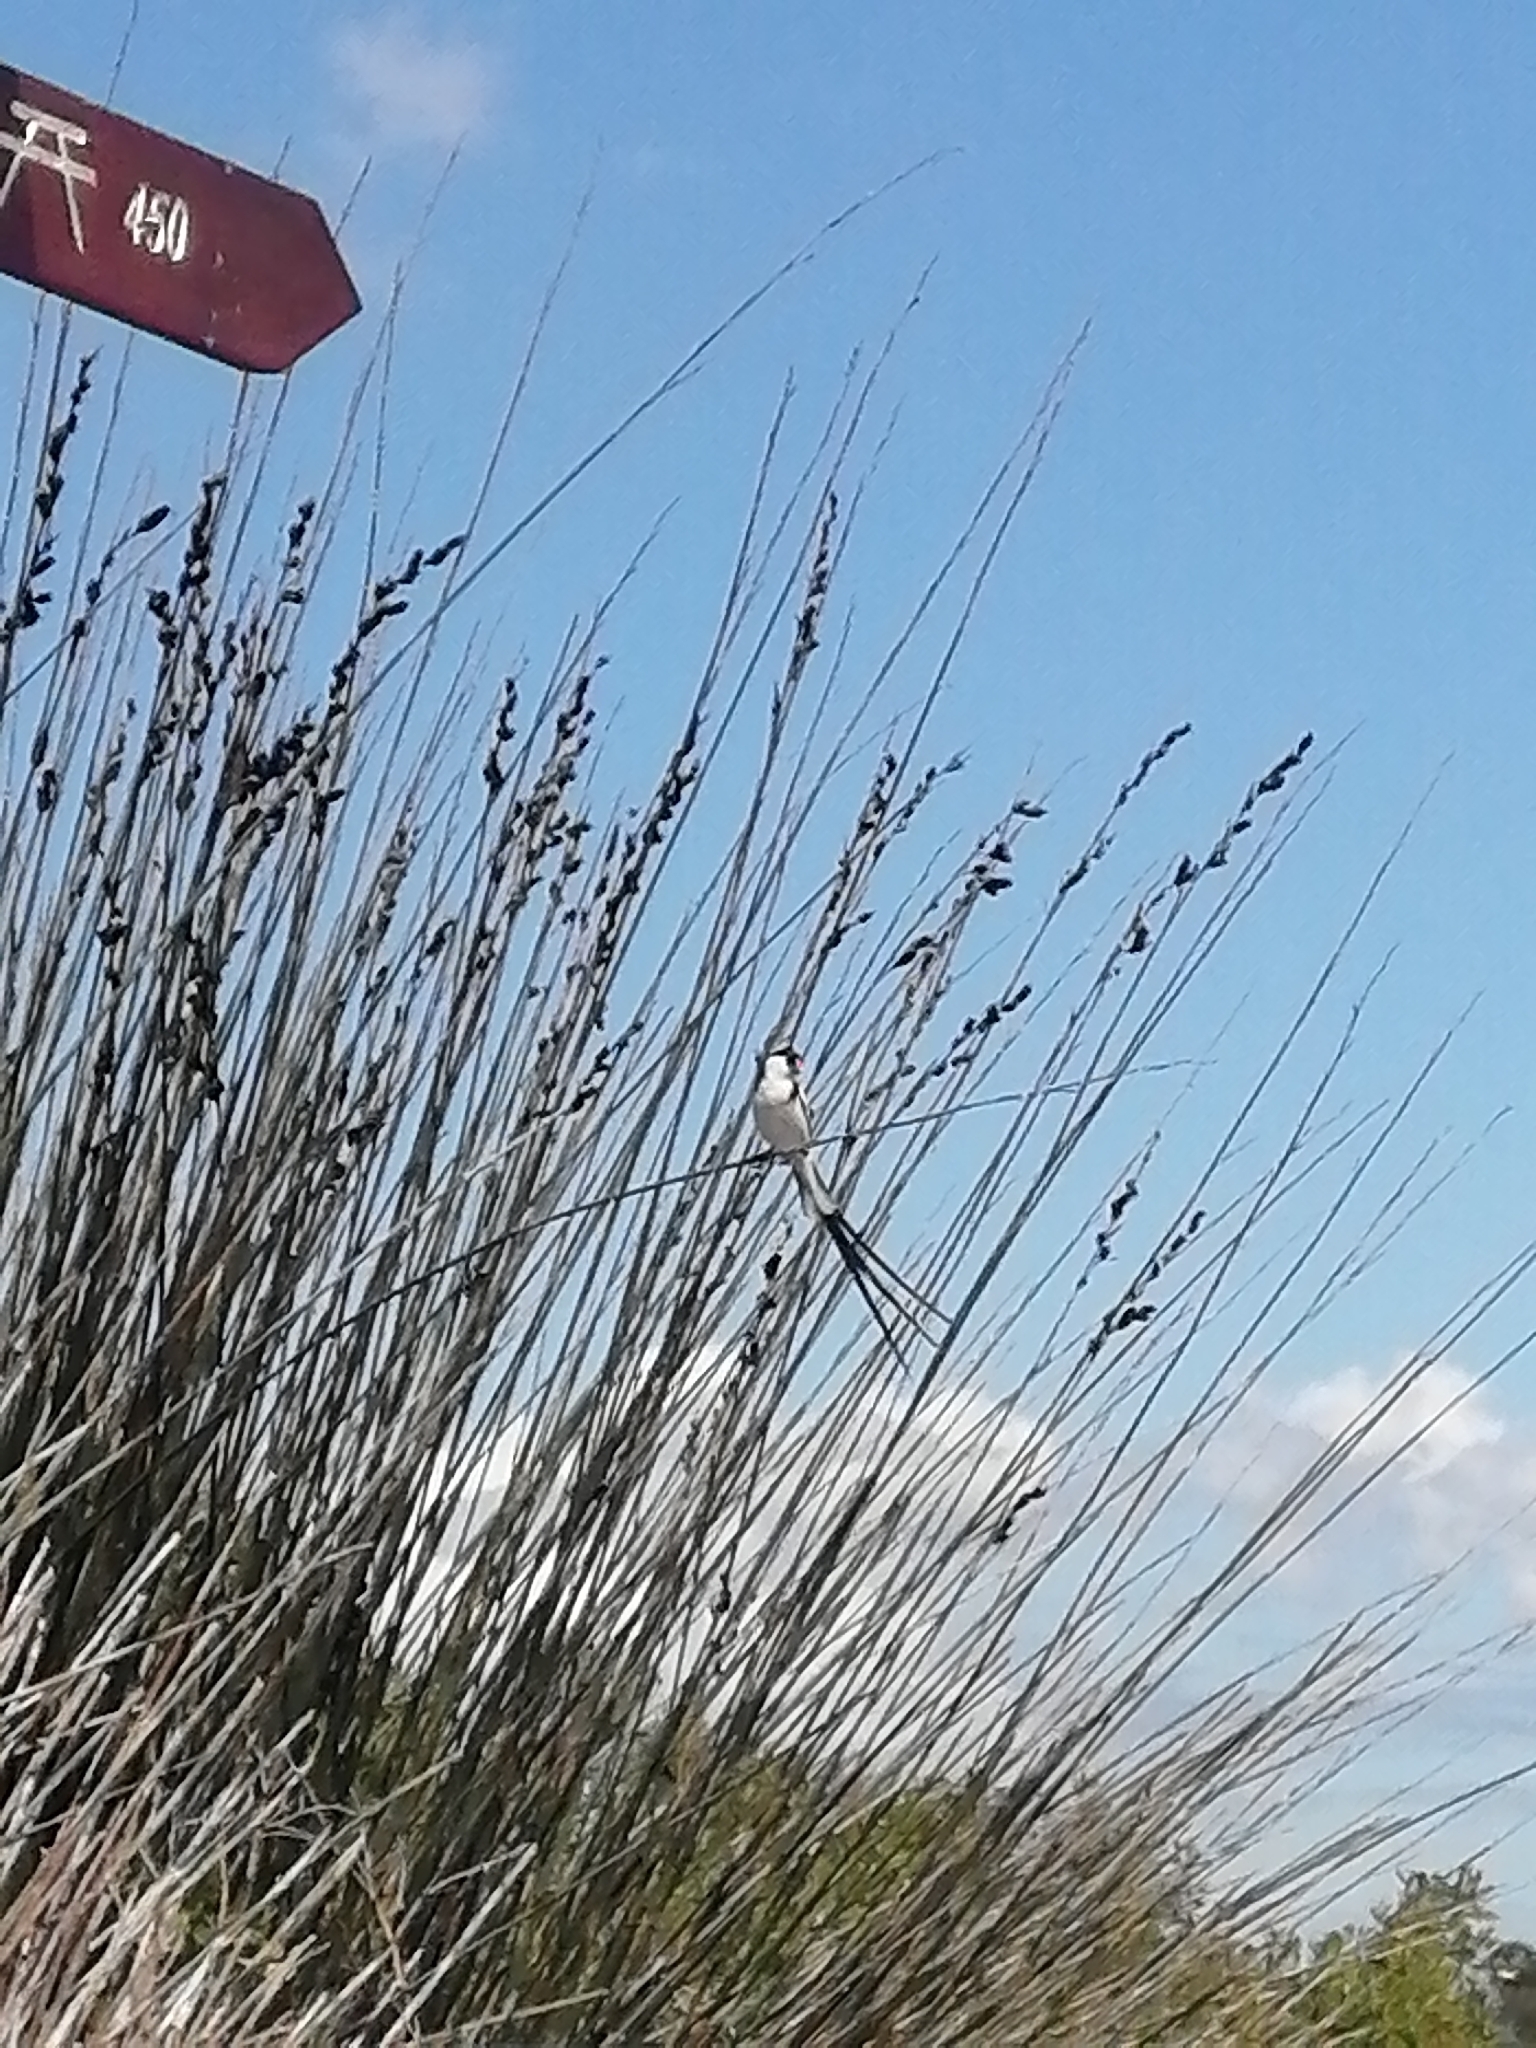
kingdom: Animalia
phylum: Chordata
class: Aves
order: Passeriformes
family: Viduidae
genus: Vidua
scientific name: Vidua macroura
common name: Pin-tailed whydah
